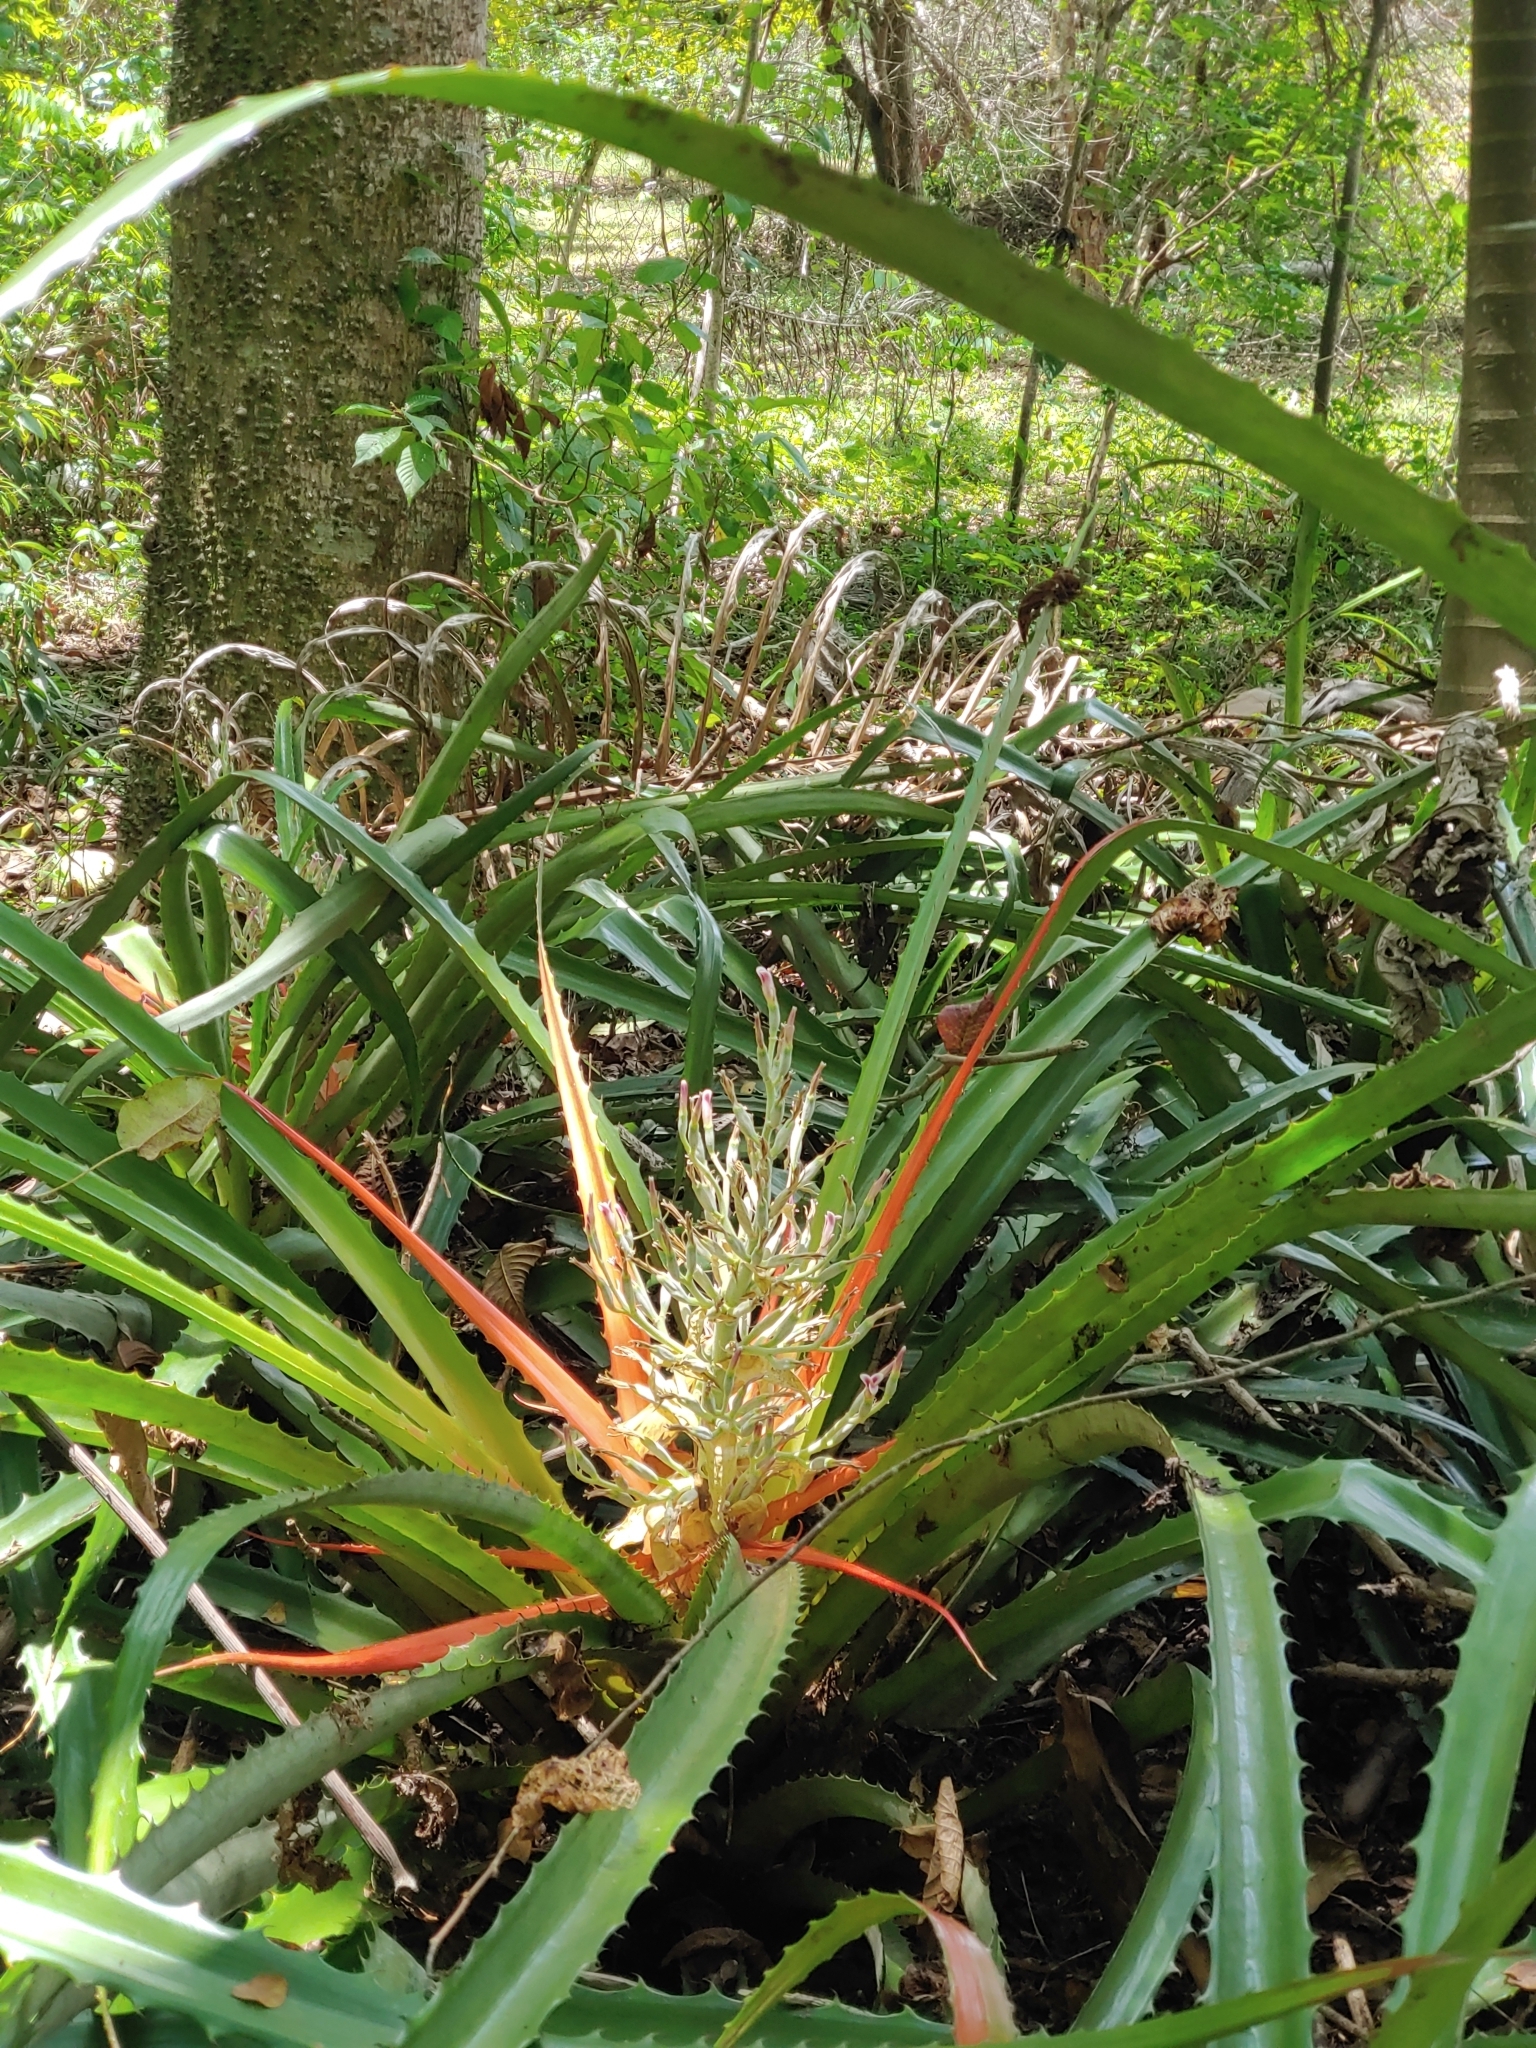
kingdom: Plantae
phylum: Tracheophyta
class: Liliopsida
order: Poales
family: Bromeliaceae
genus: Bromelia
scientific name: Bromelia pinguin
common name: Pinguin
